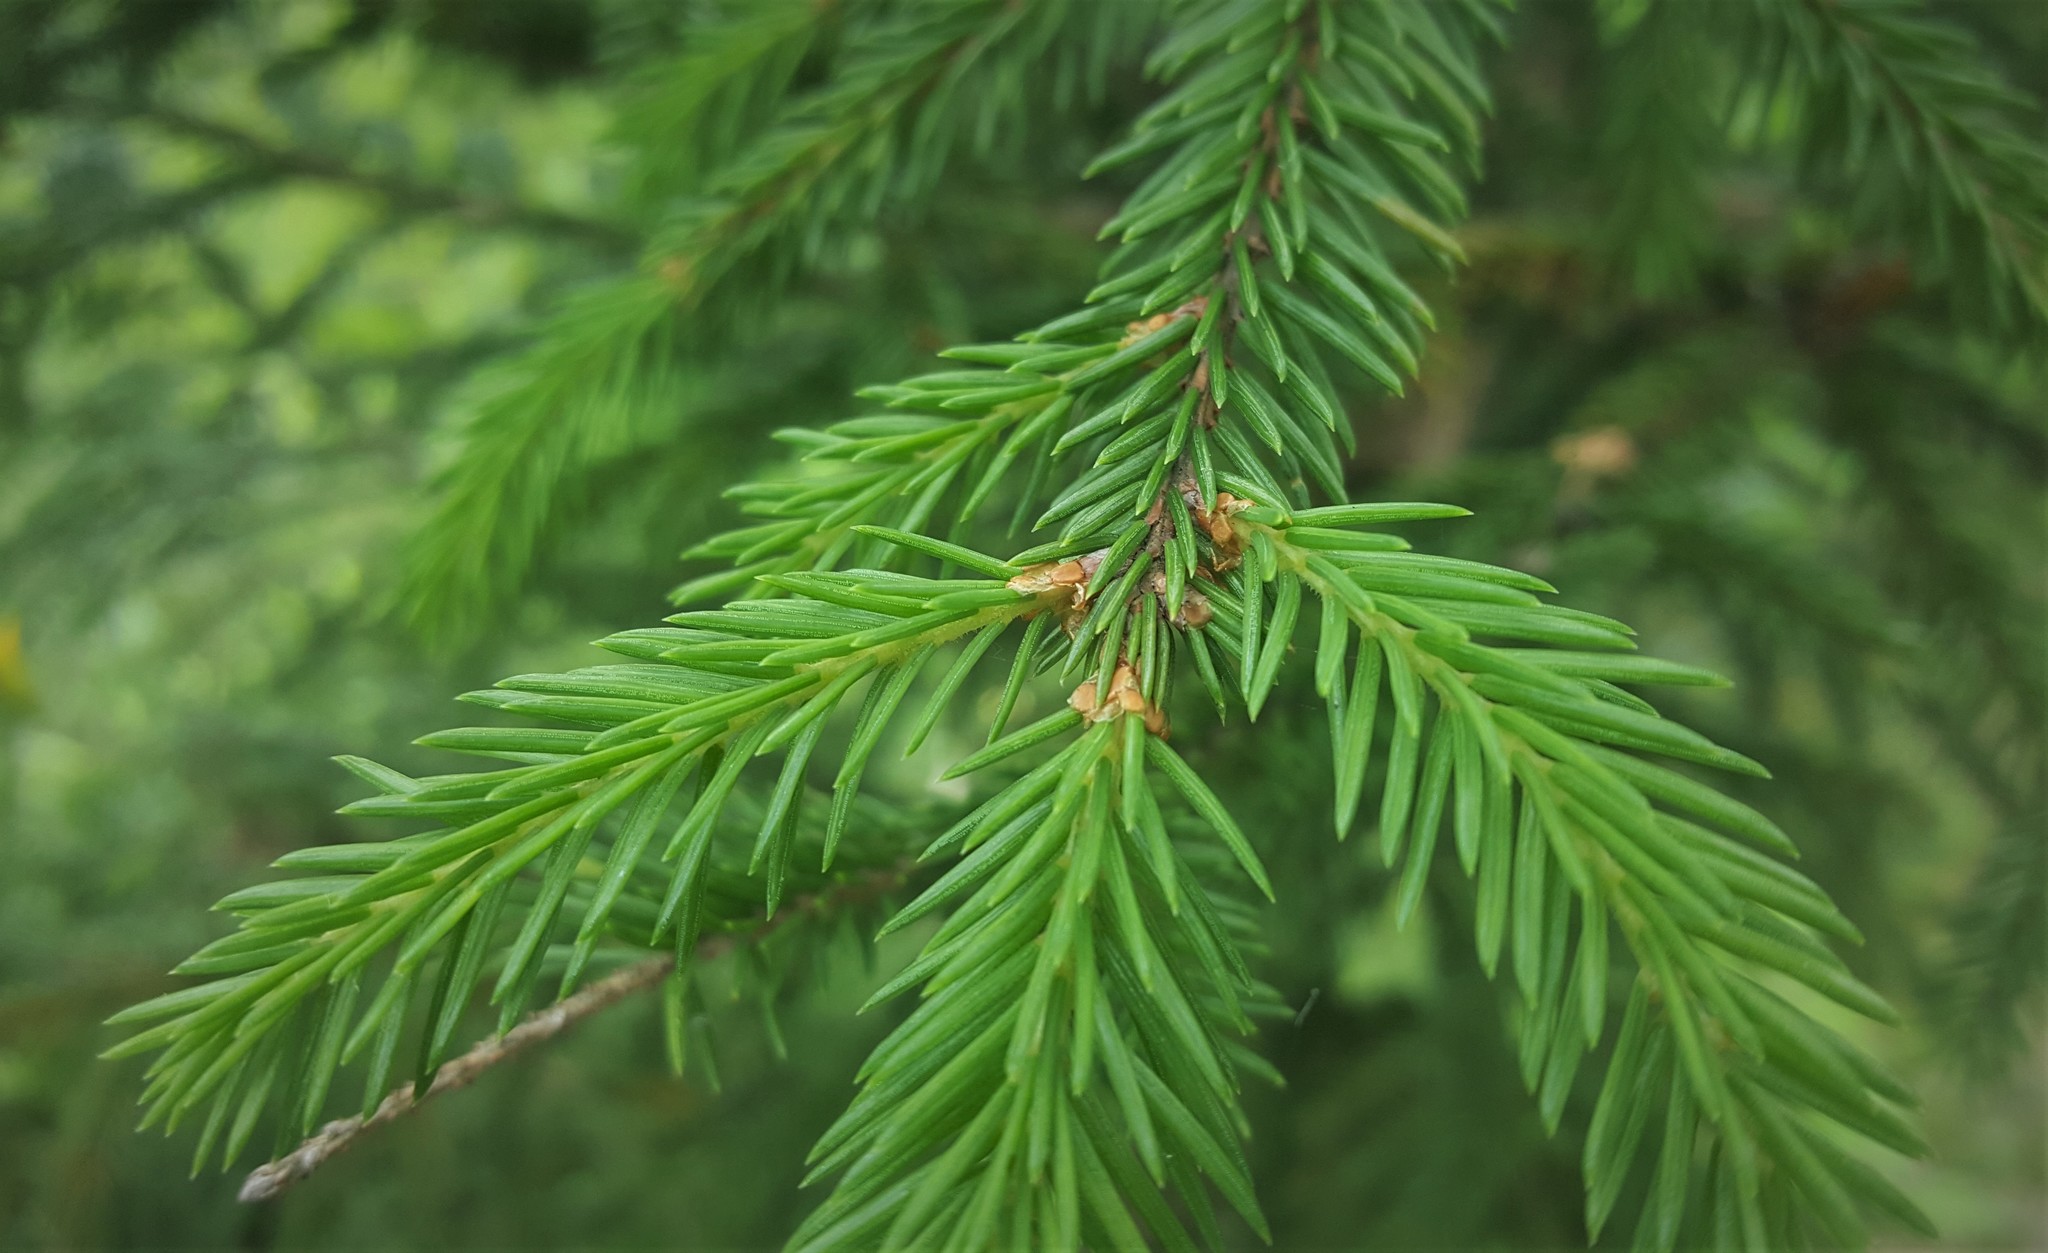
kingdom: Plantae
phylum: Tracheophyta
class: Pinopsida
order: Pinales
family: Pinaceae
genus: Picea
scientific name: Picea abies
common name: Norway spruce
